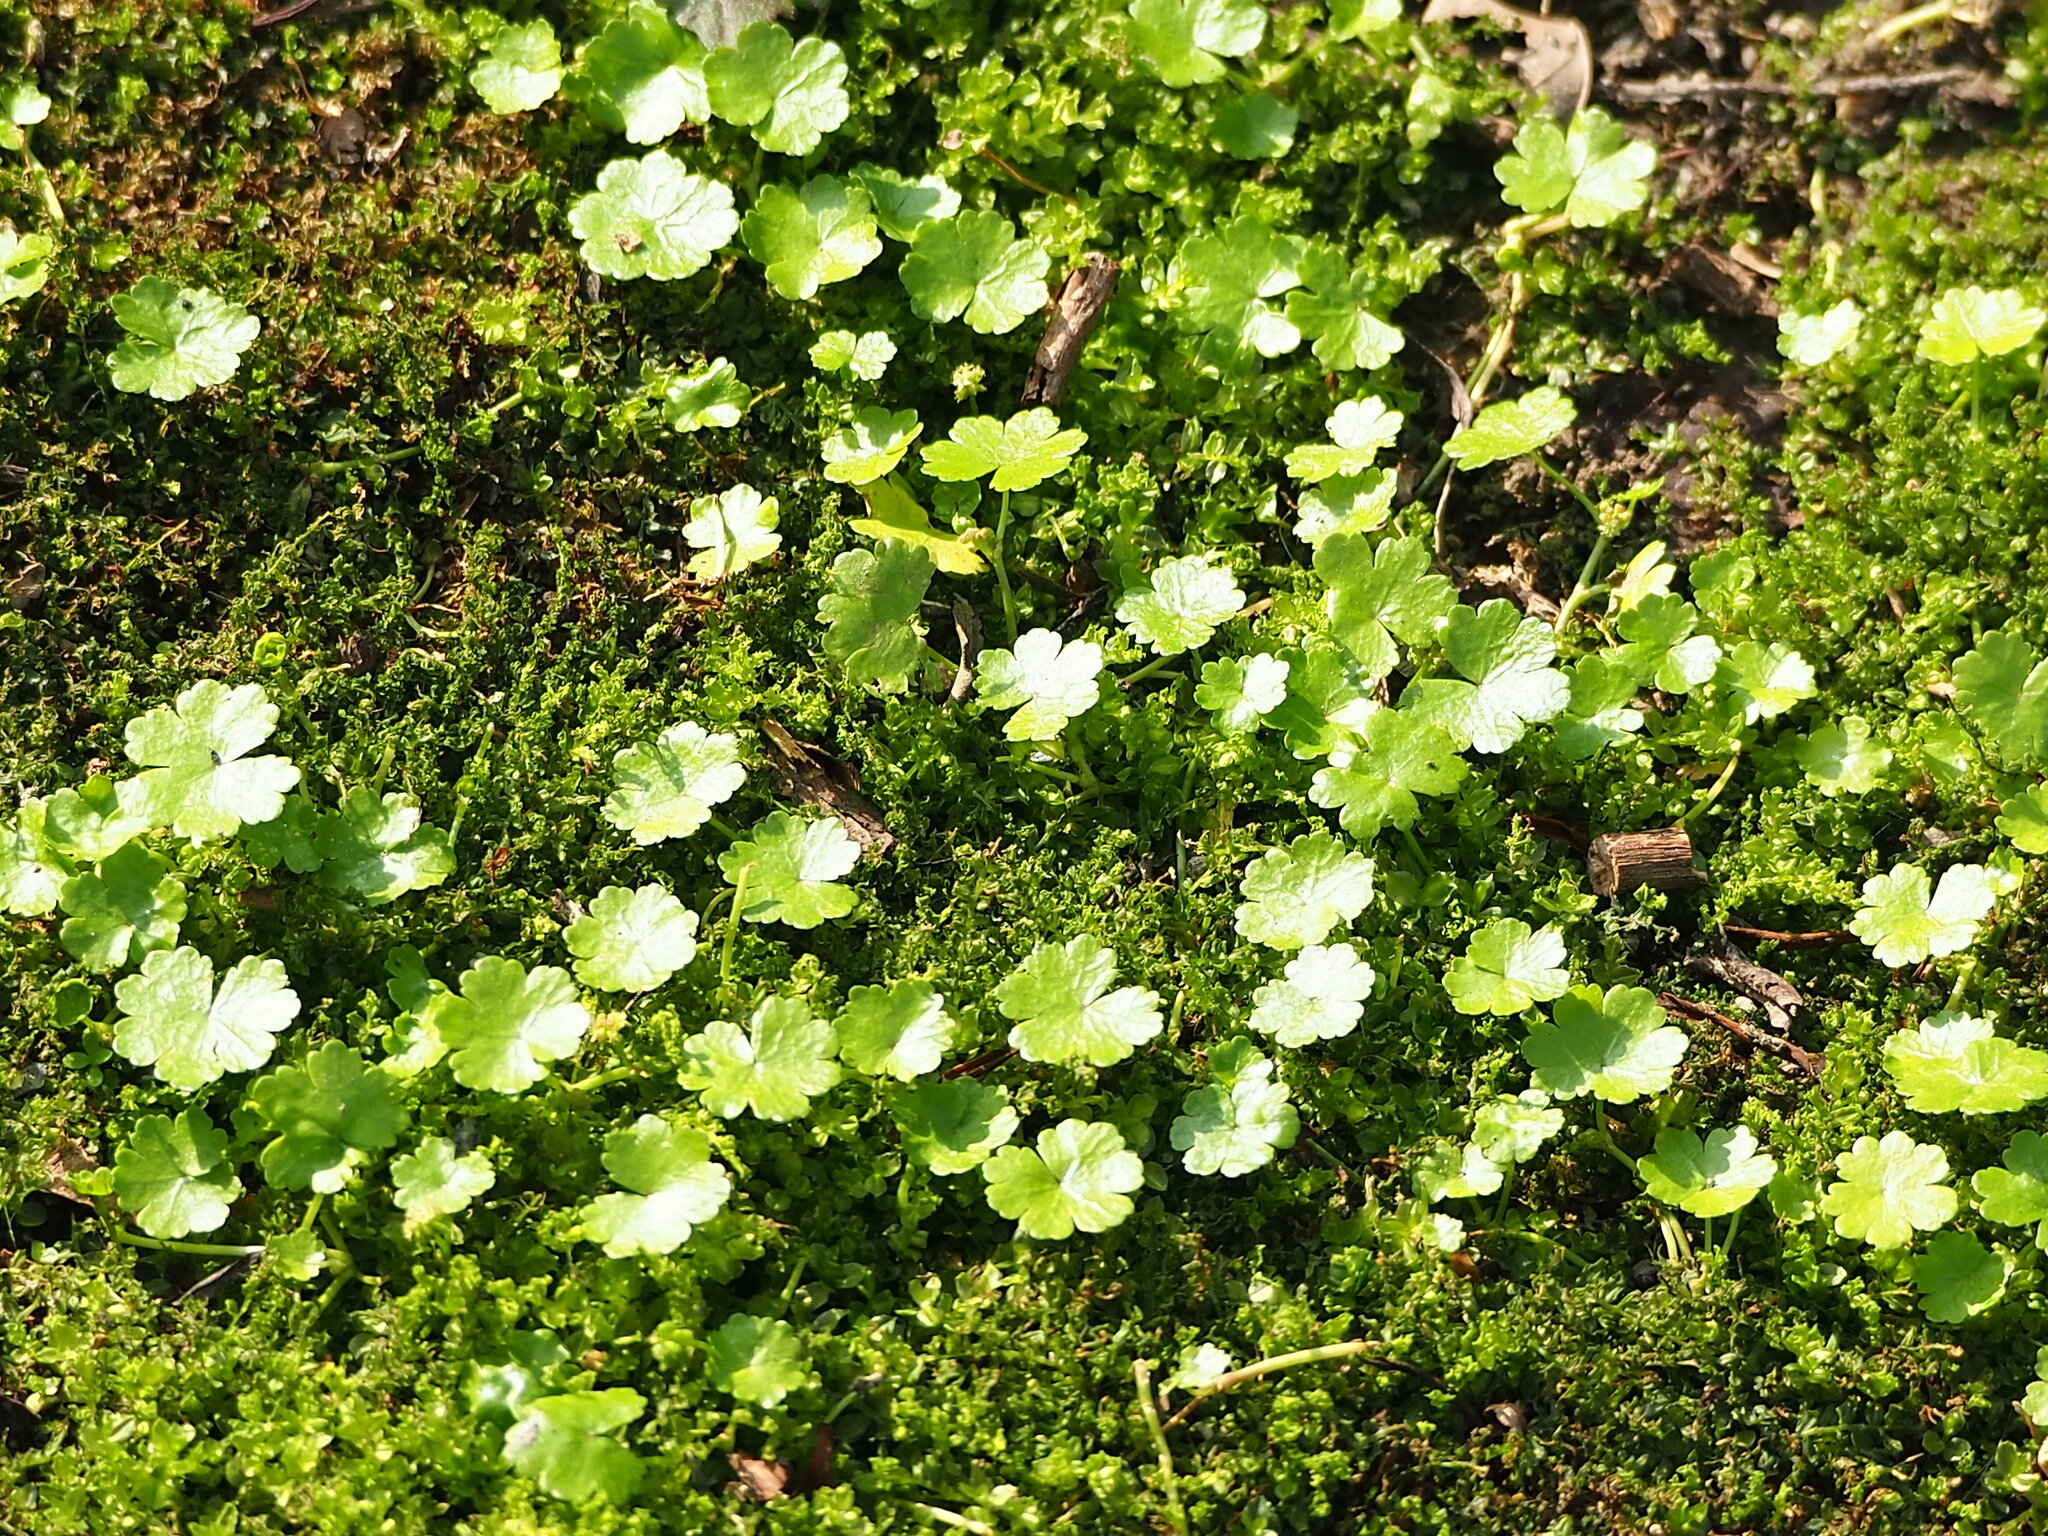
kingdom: Plantae
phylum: Tracheophyta
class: Magnoliopsida
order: Apiales
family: Araliaceae
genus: Hydrocotyle
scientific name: Hydrocotyle sibthorpioides
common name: Lawn marshpennywort
